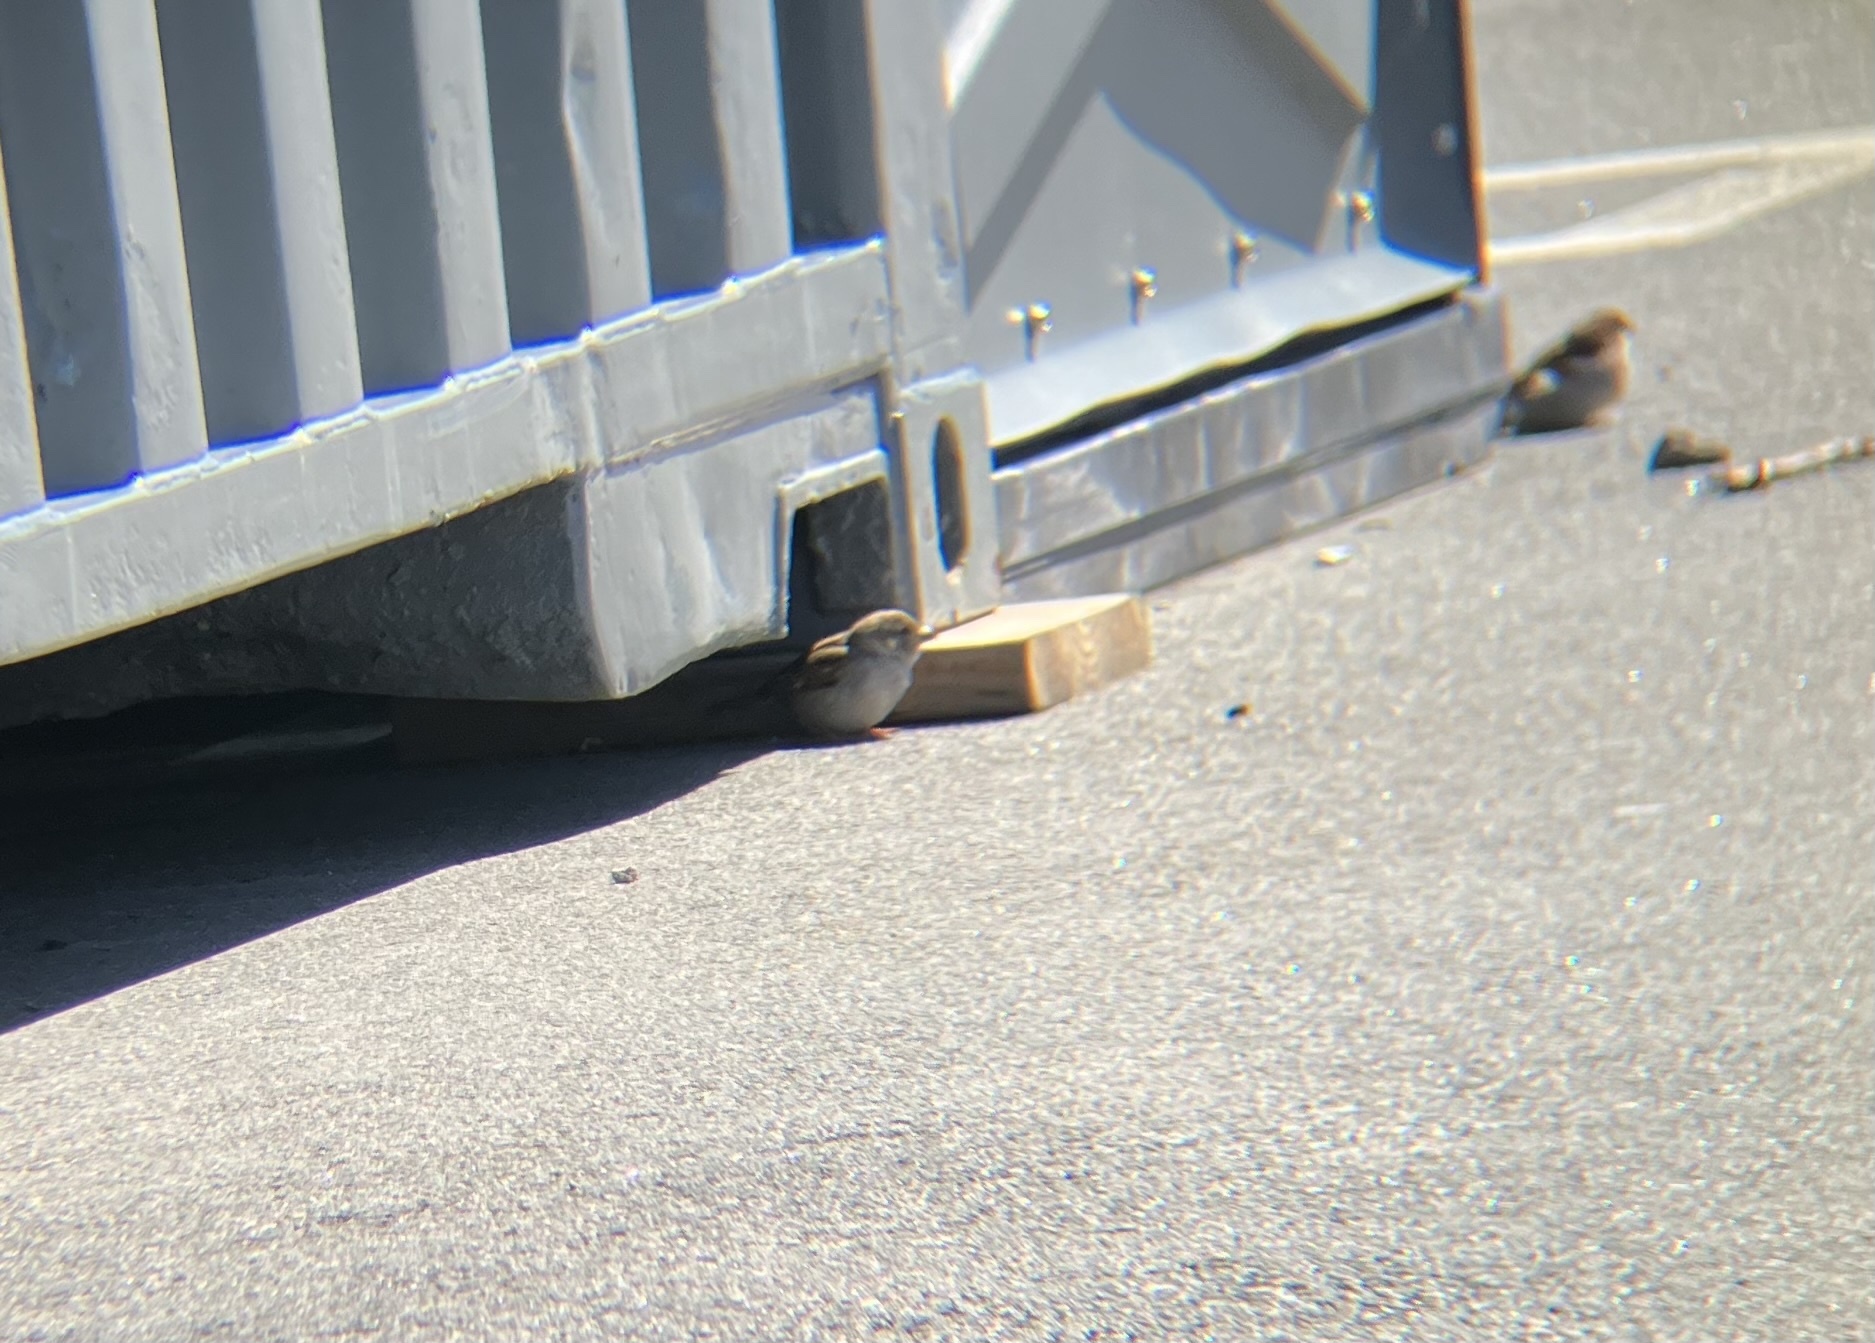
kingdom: Animalia
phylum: Chordata
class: Aves
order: Passeriformes
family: Passeridae
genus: Passer
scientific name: Passer domesticus
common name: House sparrow
